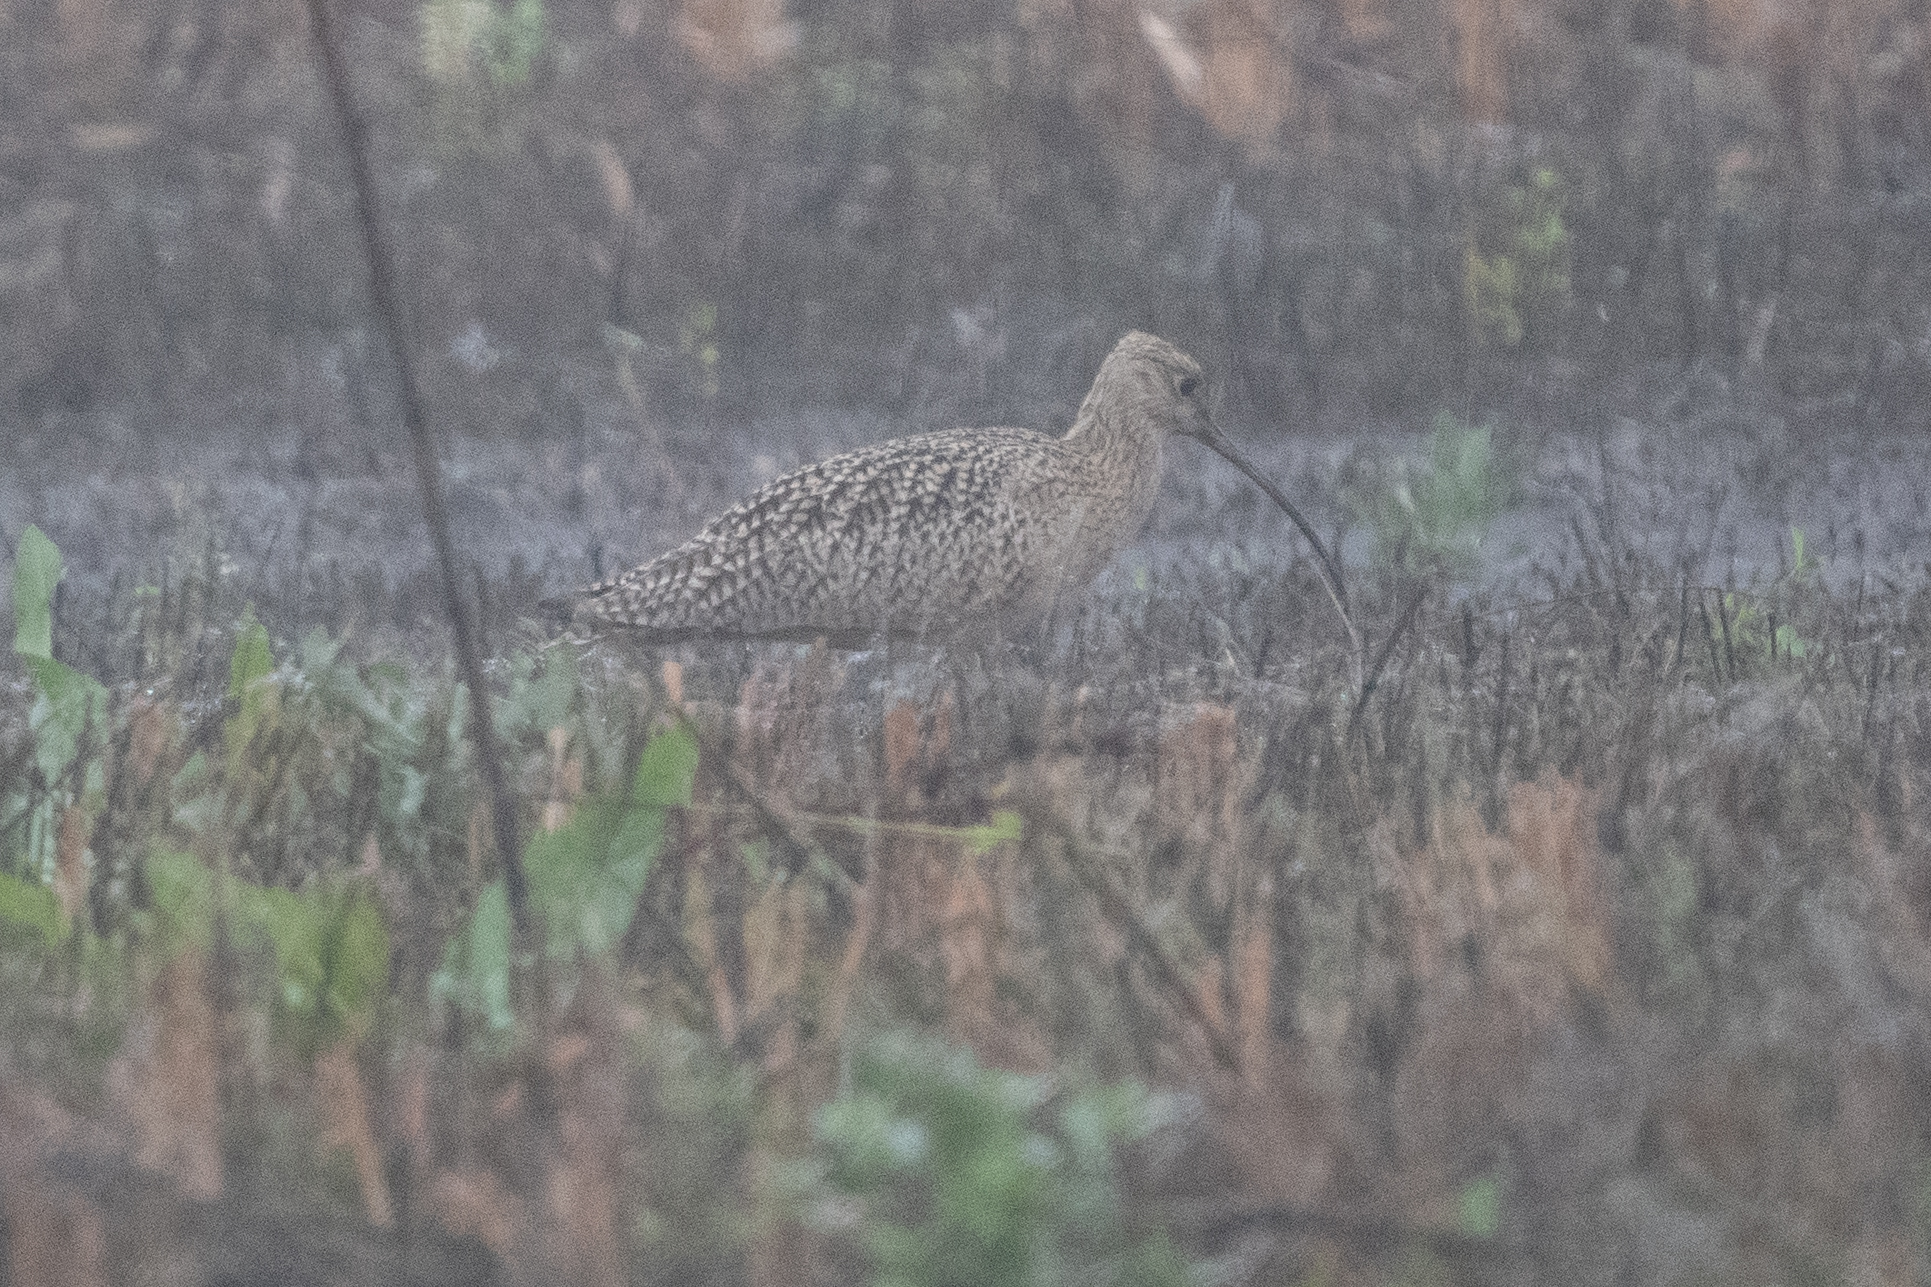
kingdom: Animalia
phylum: Chordata
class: Aves
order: Charadriiformes
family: Scolopacidae
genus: Numenius
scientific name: Numenius americanus
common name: Long-billed curlew
